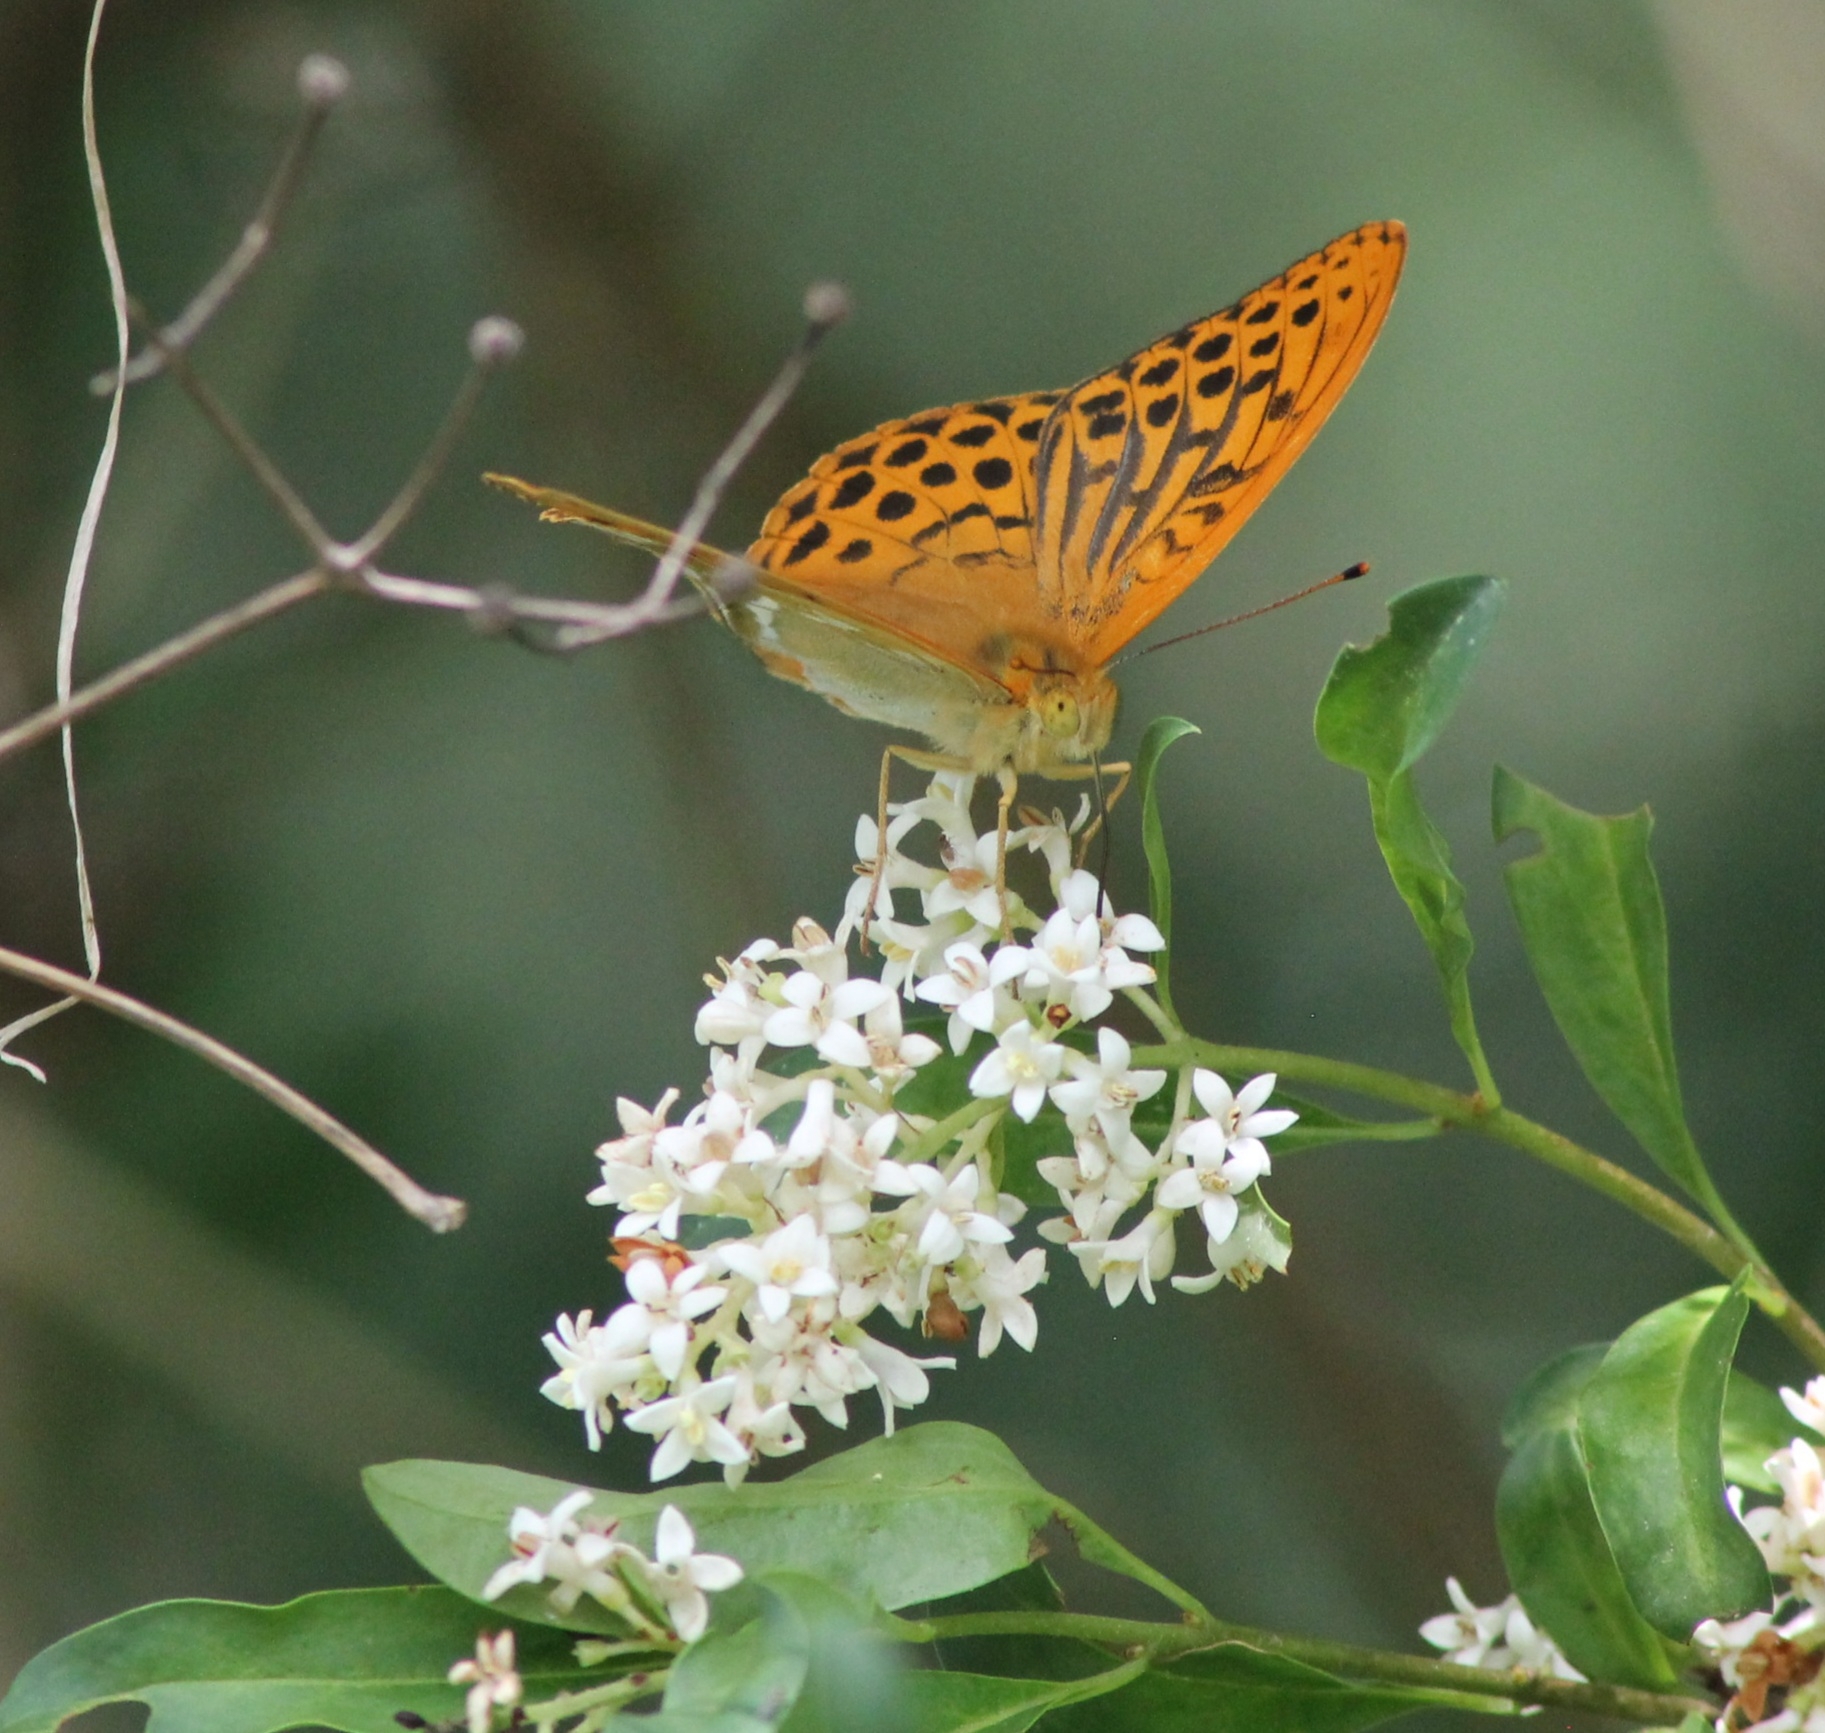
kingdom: Animalia
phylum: Arthropoda
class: Insecta
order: Lepidoptera
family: Nymphalidae
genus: Argynnis
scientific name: Argynnis paphia
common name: Silver-washed fritillary
